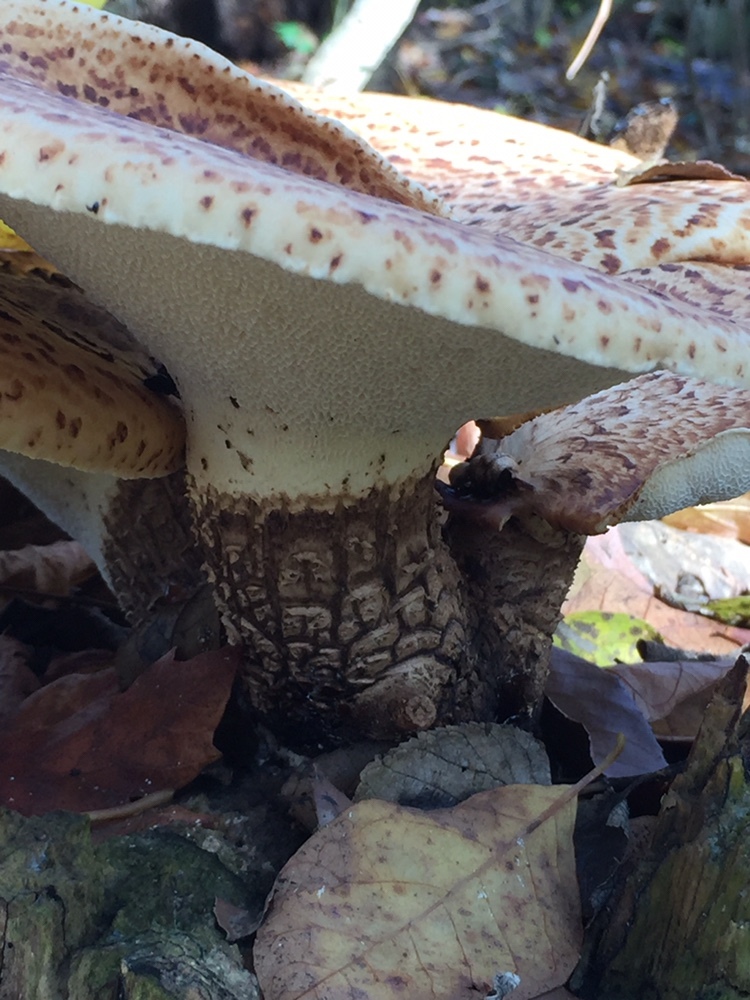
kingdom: Fungi
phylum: Basidiomycota
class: Agaricomycetes
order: Polyporales
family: Polyporaceae
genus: Cerioporus
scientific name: Cerioporus squamosus
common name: Dryad's saddle
